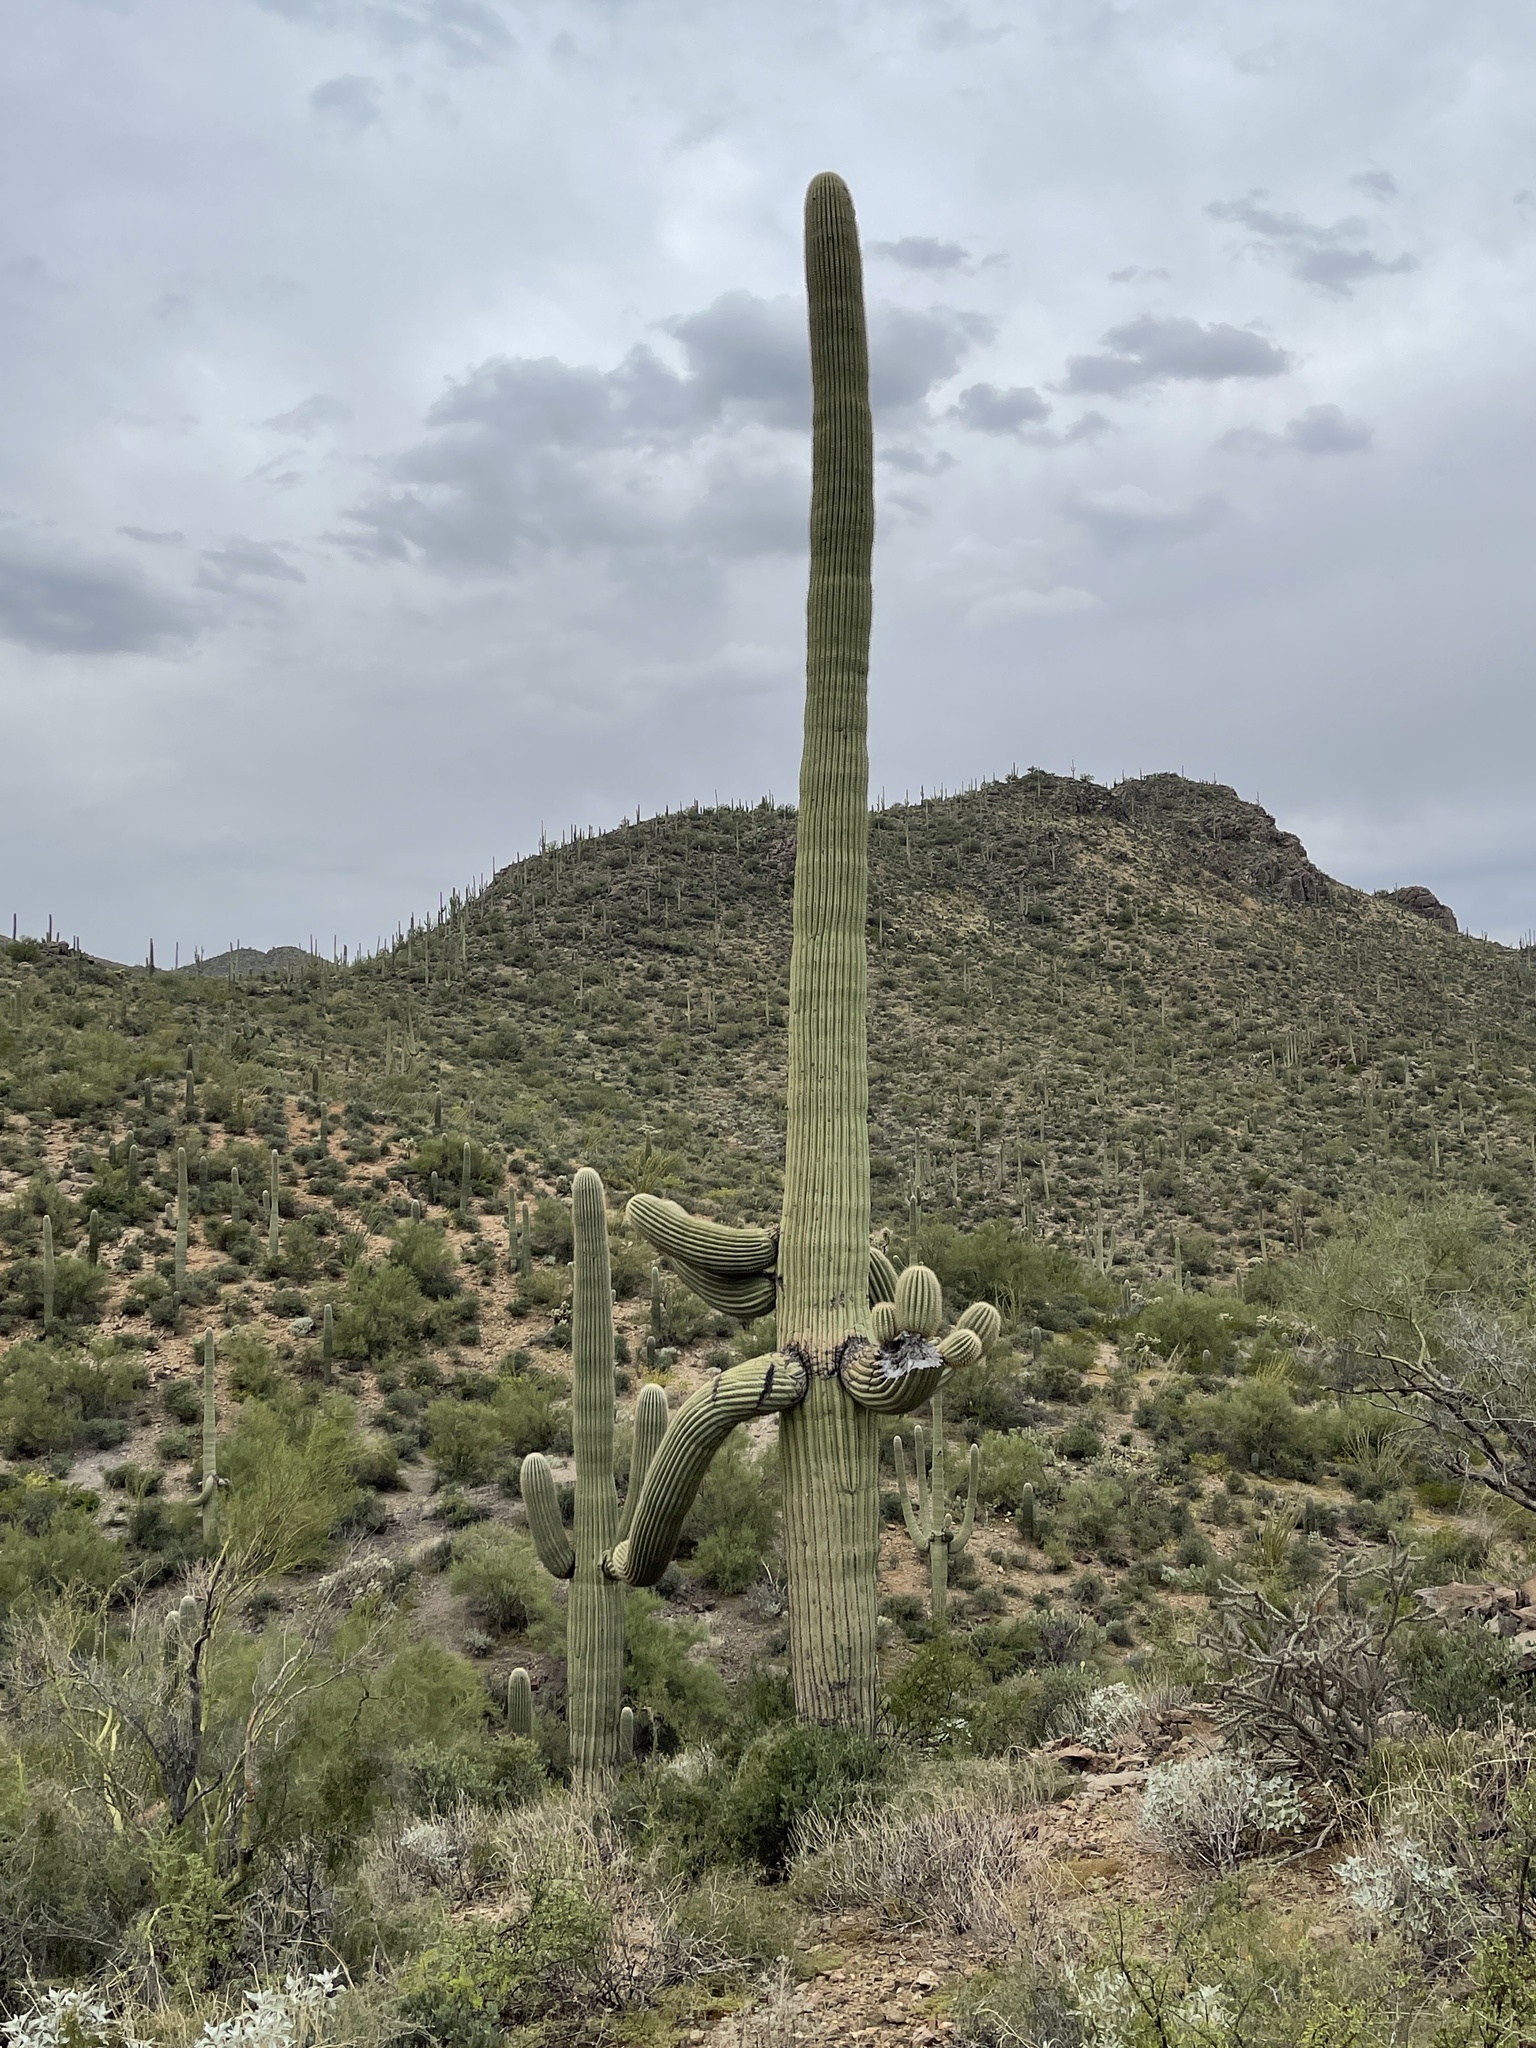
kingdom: Plantae
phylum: Tracheophyta
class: Magnoliopsida
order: Caryophyllales
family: Cactaceae
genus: Carnegiea
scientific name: Carnegiea gigantea
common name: Saguaro
